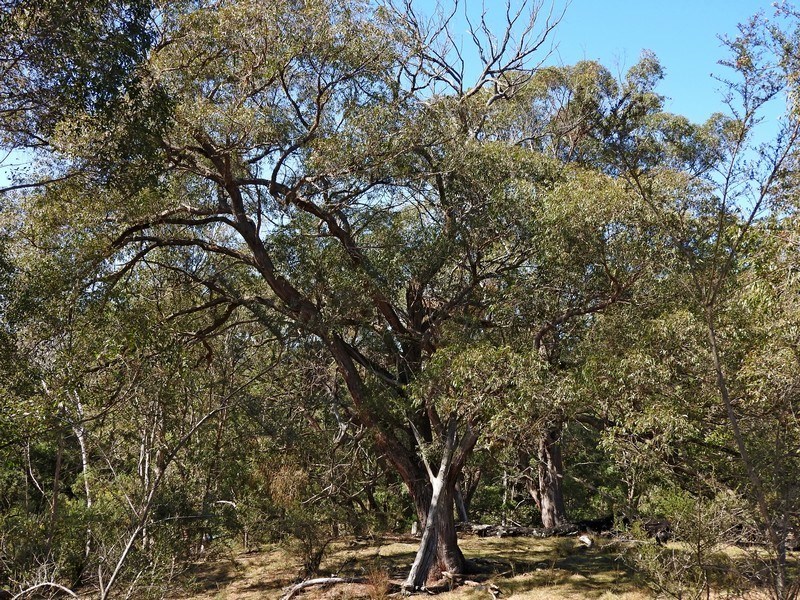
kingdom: Plantae
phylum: Tracheophyta
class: Magnoliopsida
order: Myrtales
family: Myrtaceae
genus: Eucalyptus
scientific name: Eucalyptus eugenioides
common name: Narrow-leaved-stringybark
